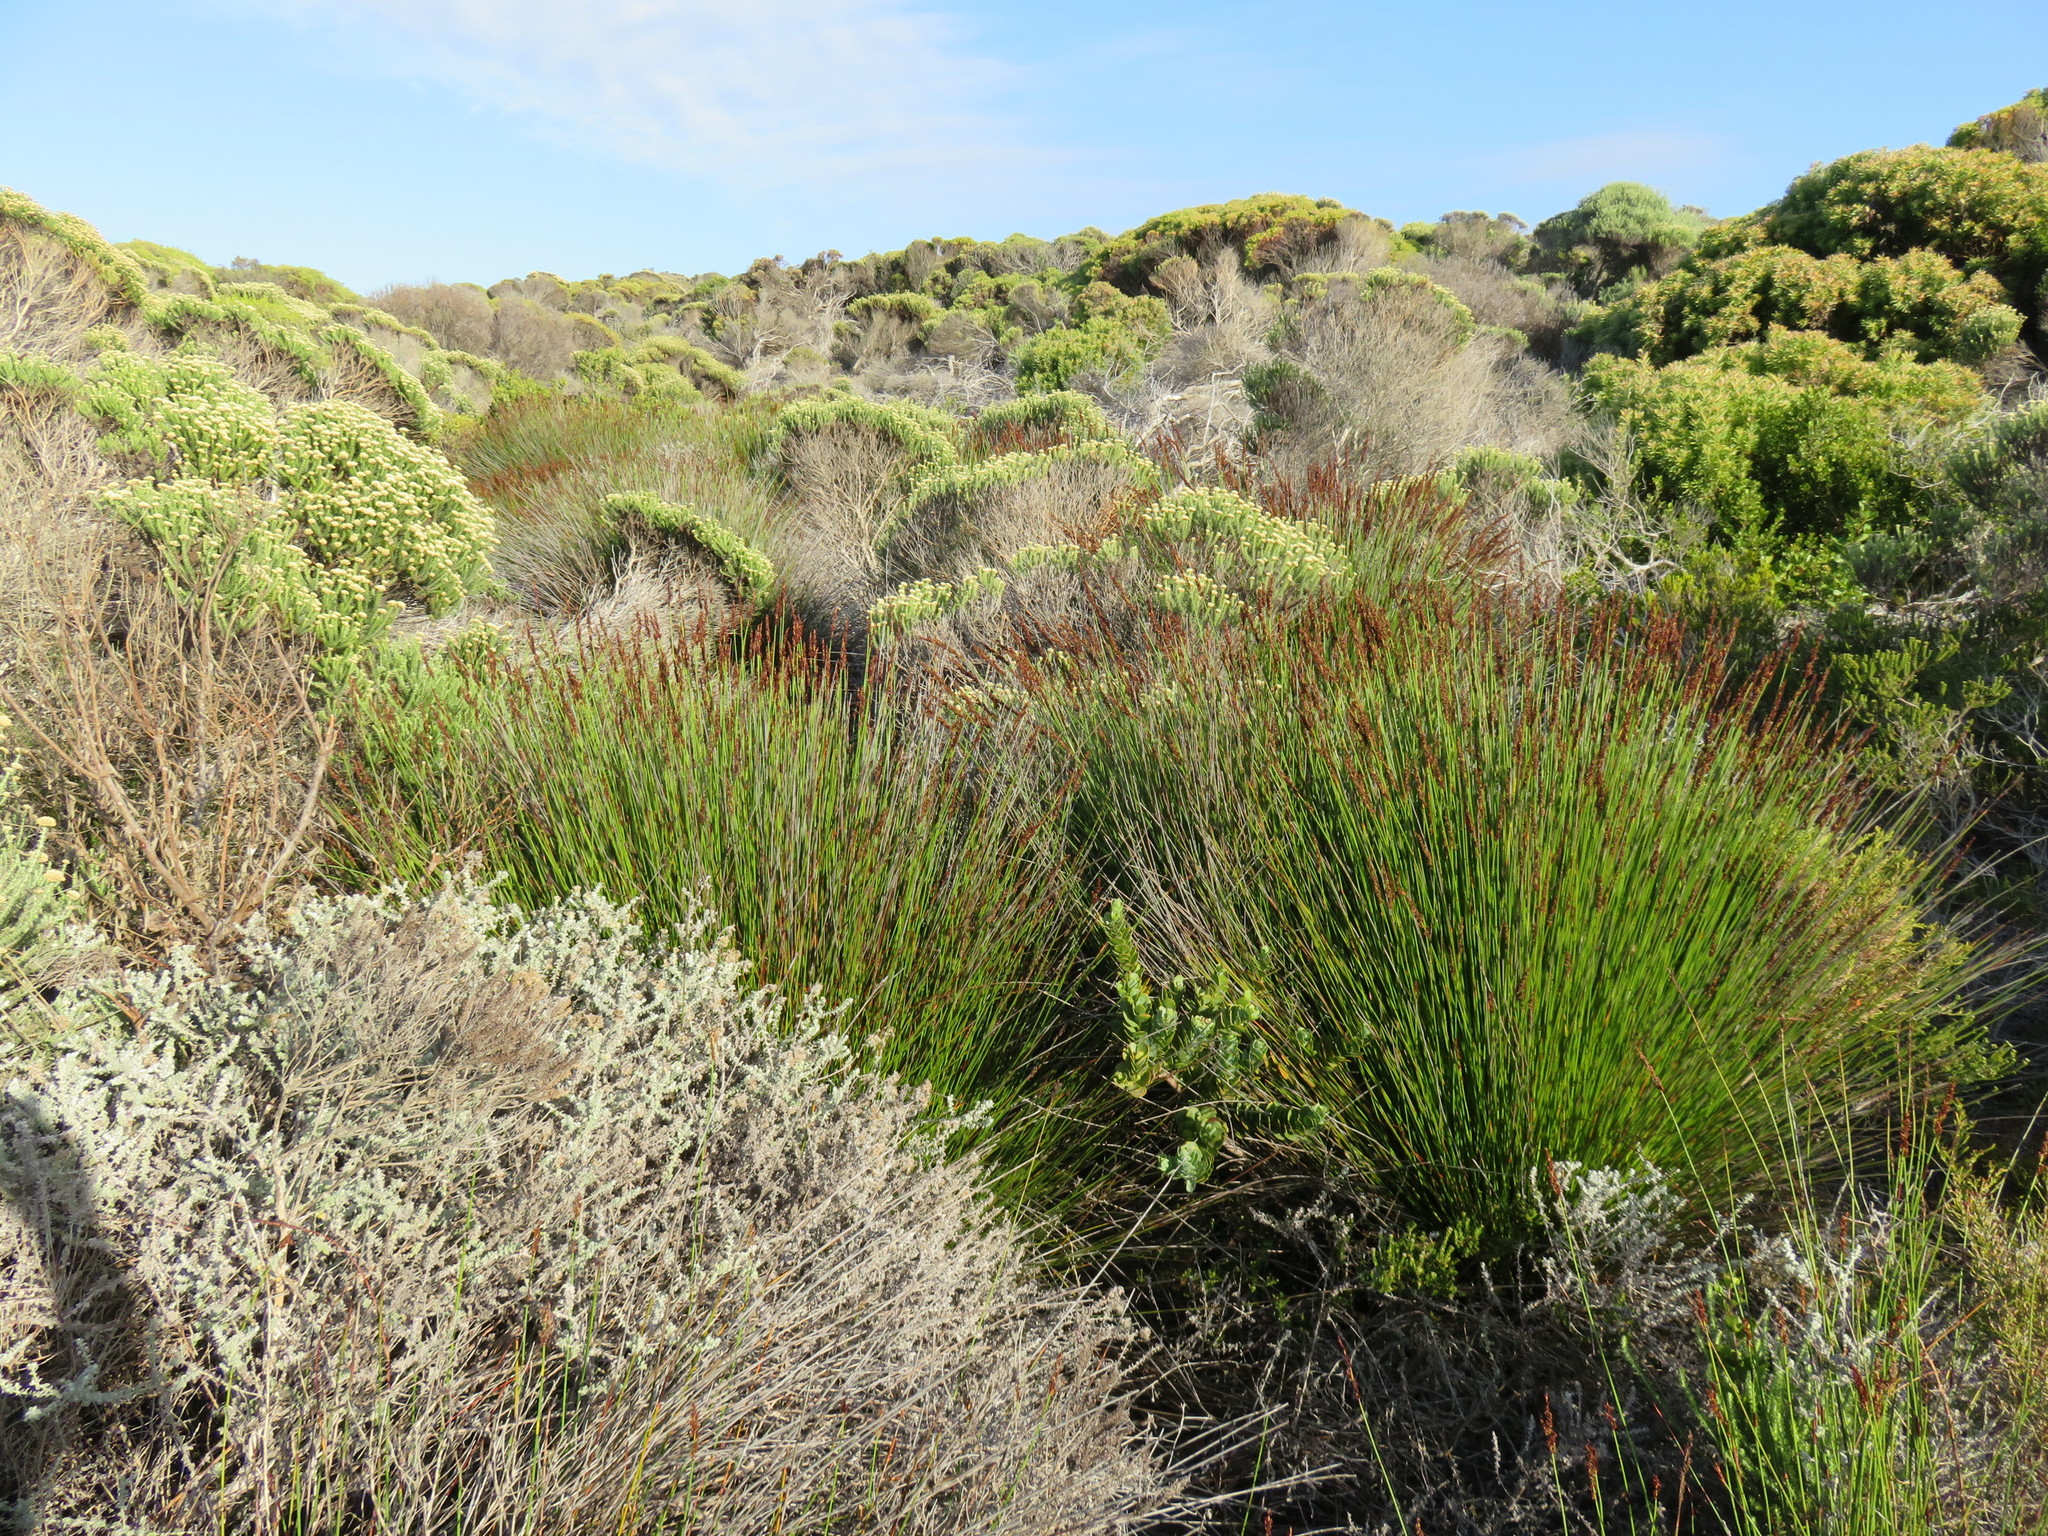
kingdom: Plantae
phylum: Tracheophyta
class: Liliopsida
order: Poales
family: Restionaceae
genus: Elegia
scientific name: Elegia tectorum
